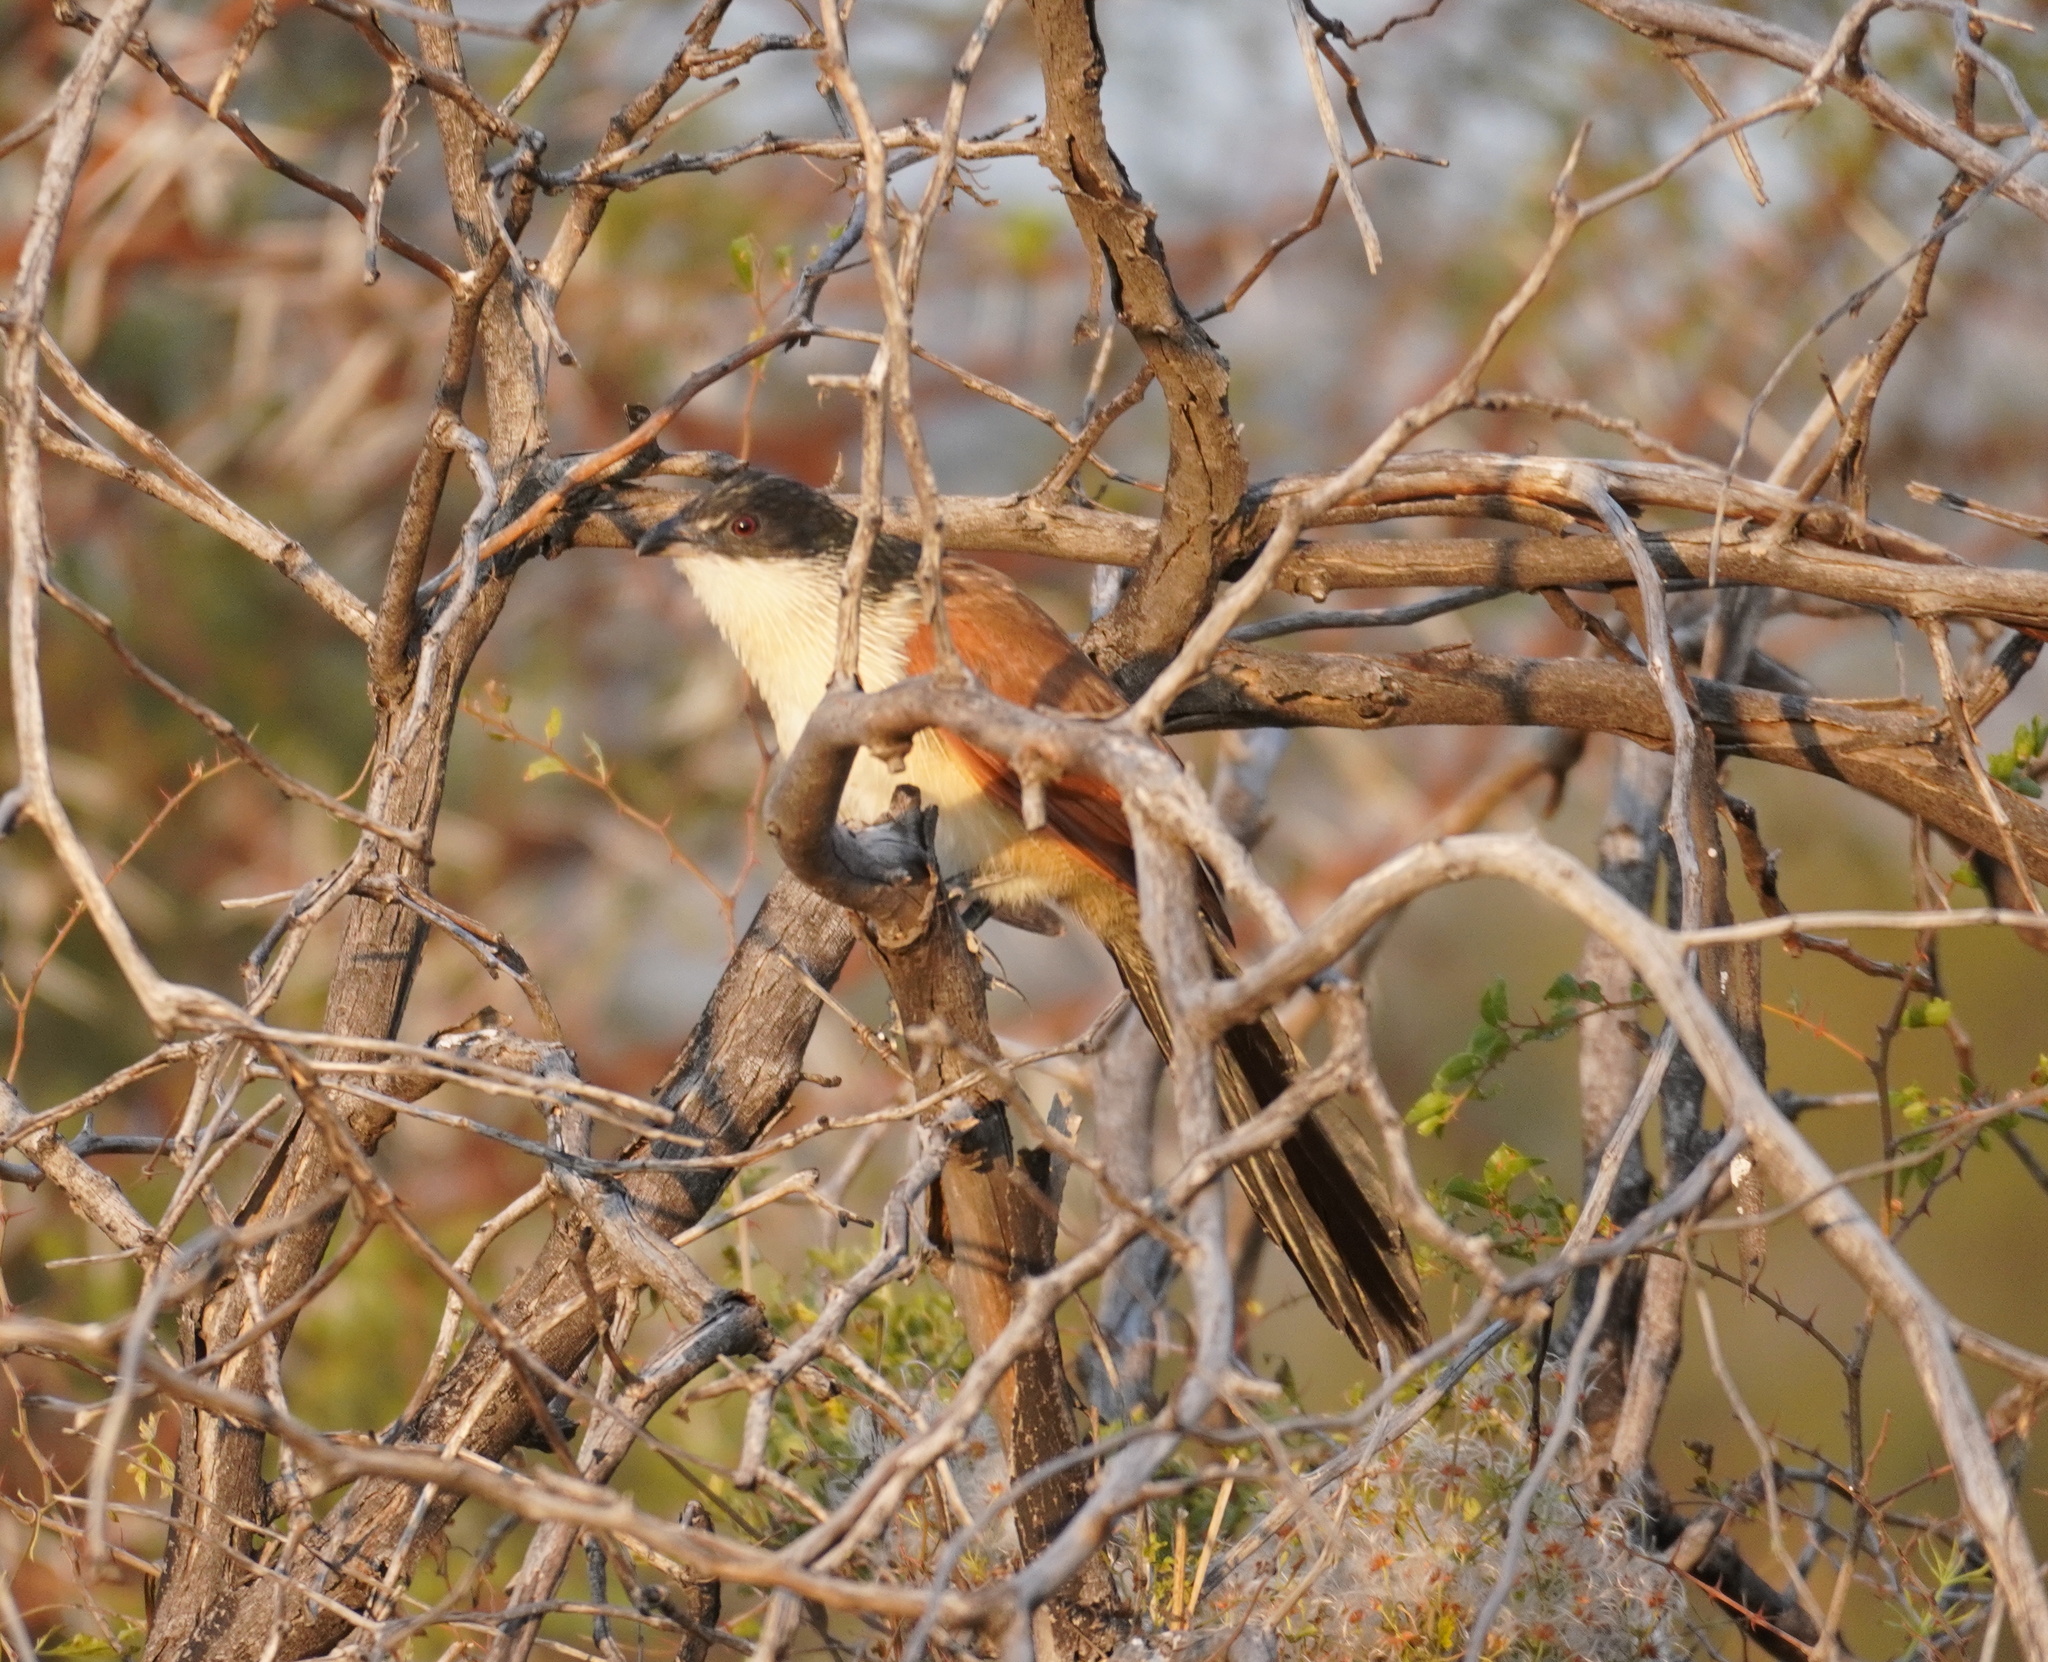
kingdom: Animalia
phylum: Chordata
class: Aves
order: Cuculiformes
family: Cuculidae
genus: Centropus
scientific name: Centropus superciliosus
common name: White-browed coucal
